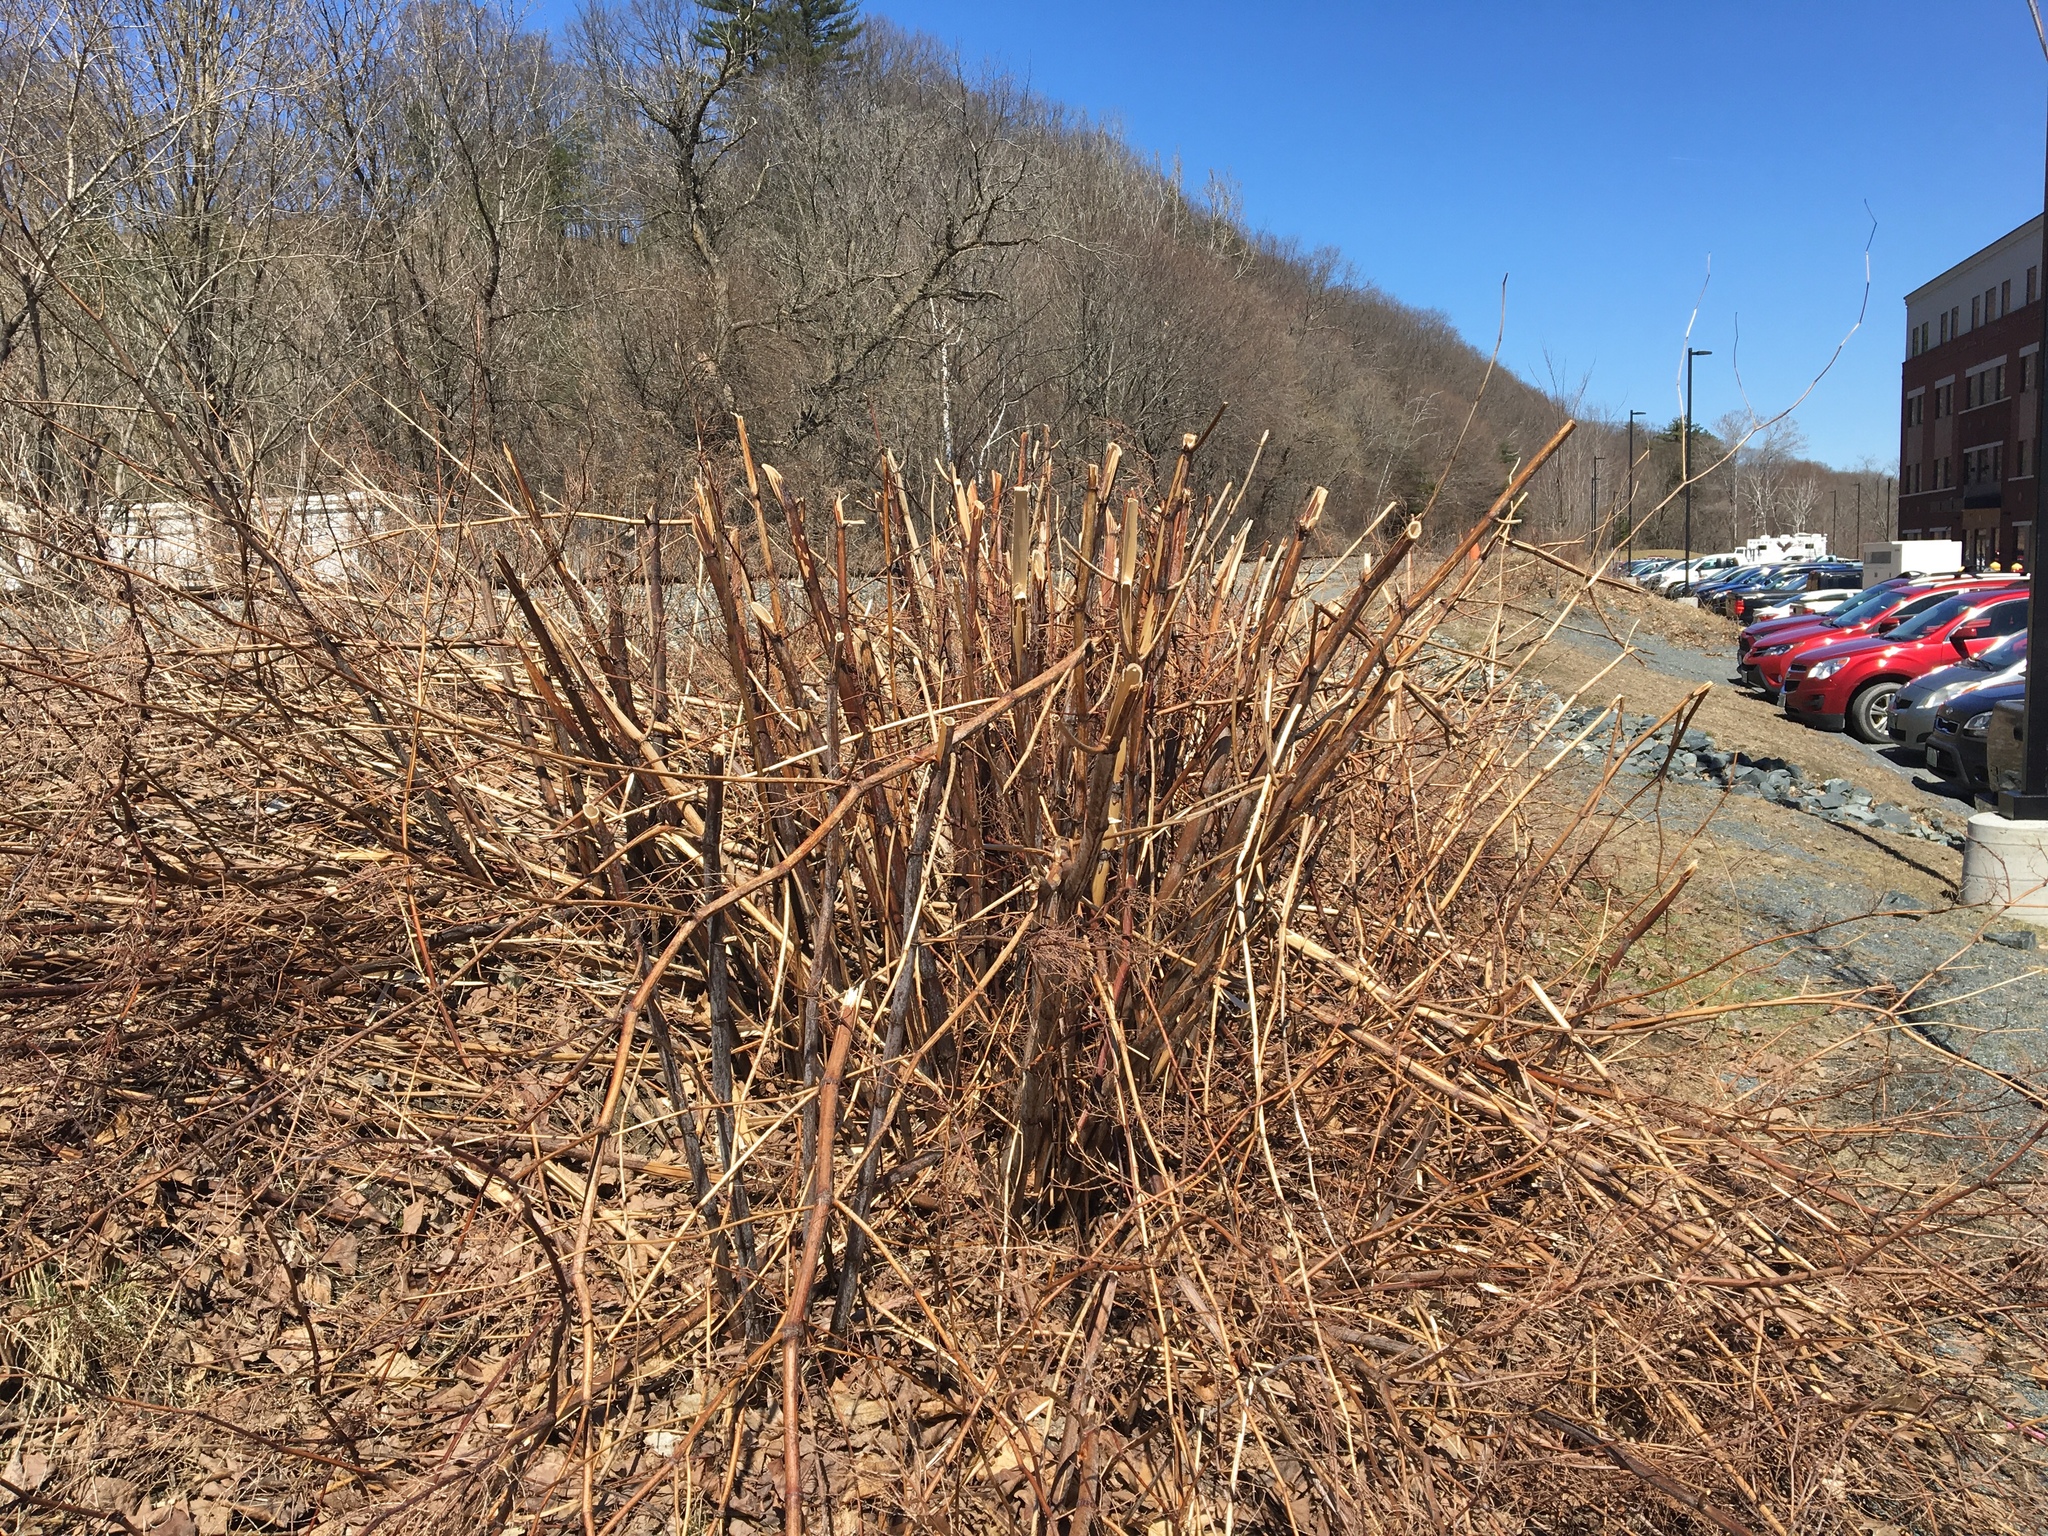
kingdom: Plantae
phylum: Tracheophyta
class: Magnoliopsida
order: Caryophyllales
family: Polygonaceae
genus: Reynoutria
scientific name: Reynoutria japonica
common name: Japanese knotweed
